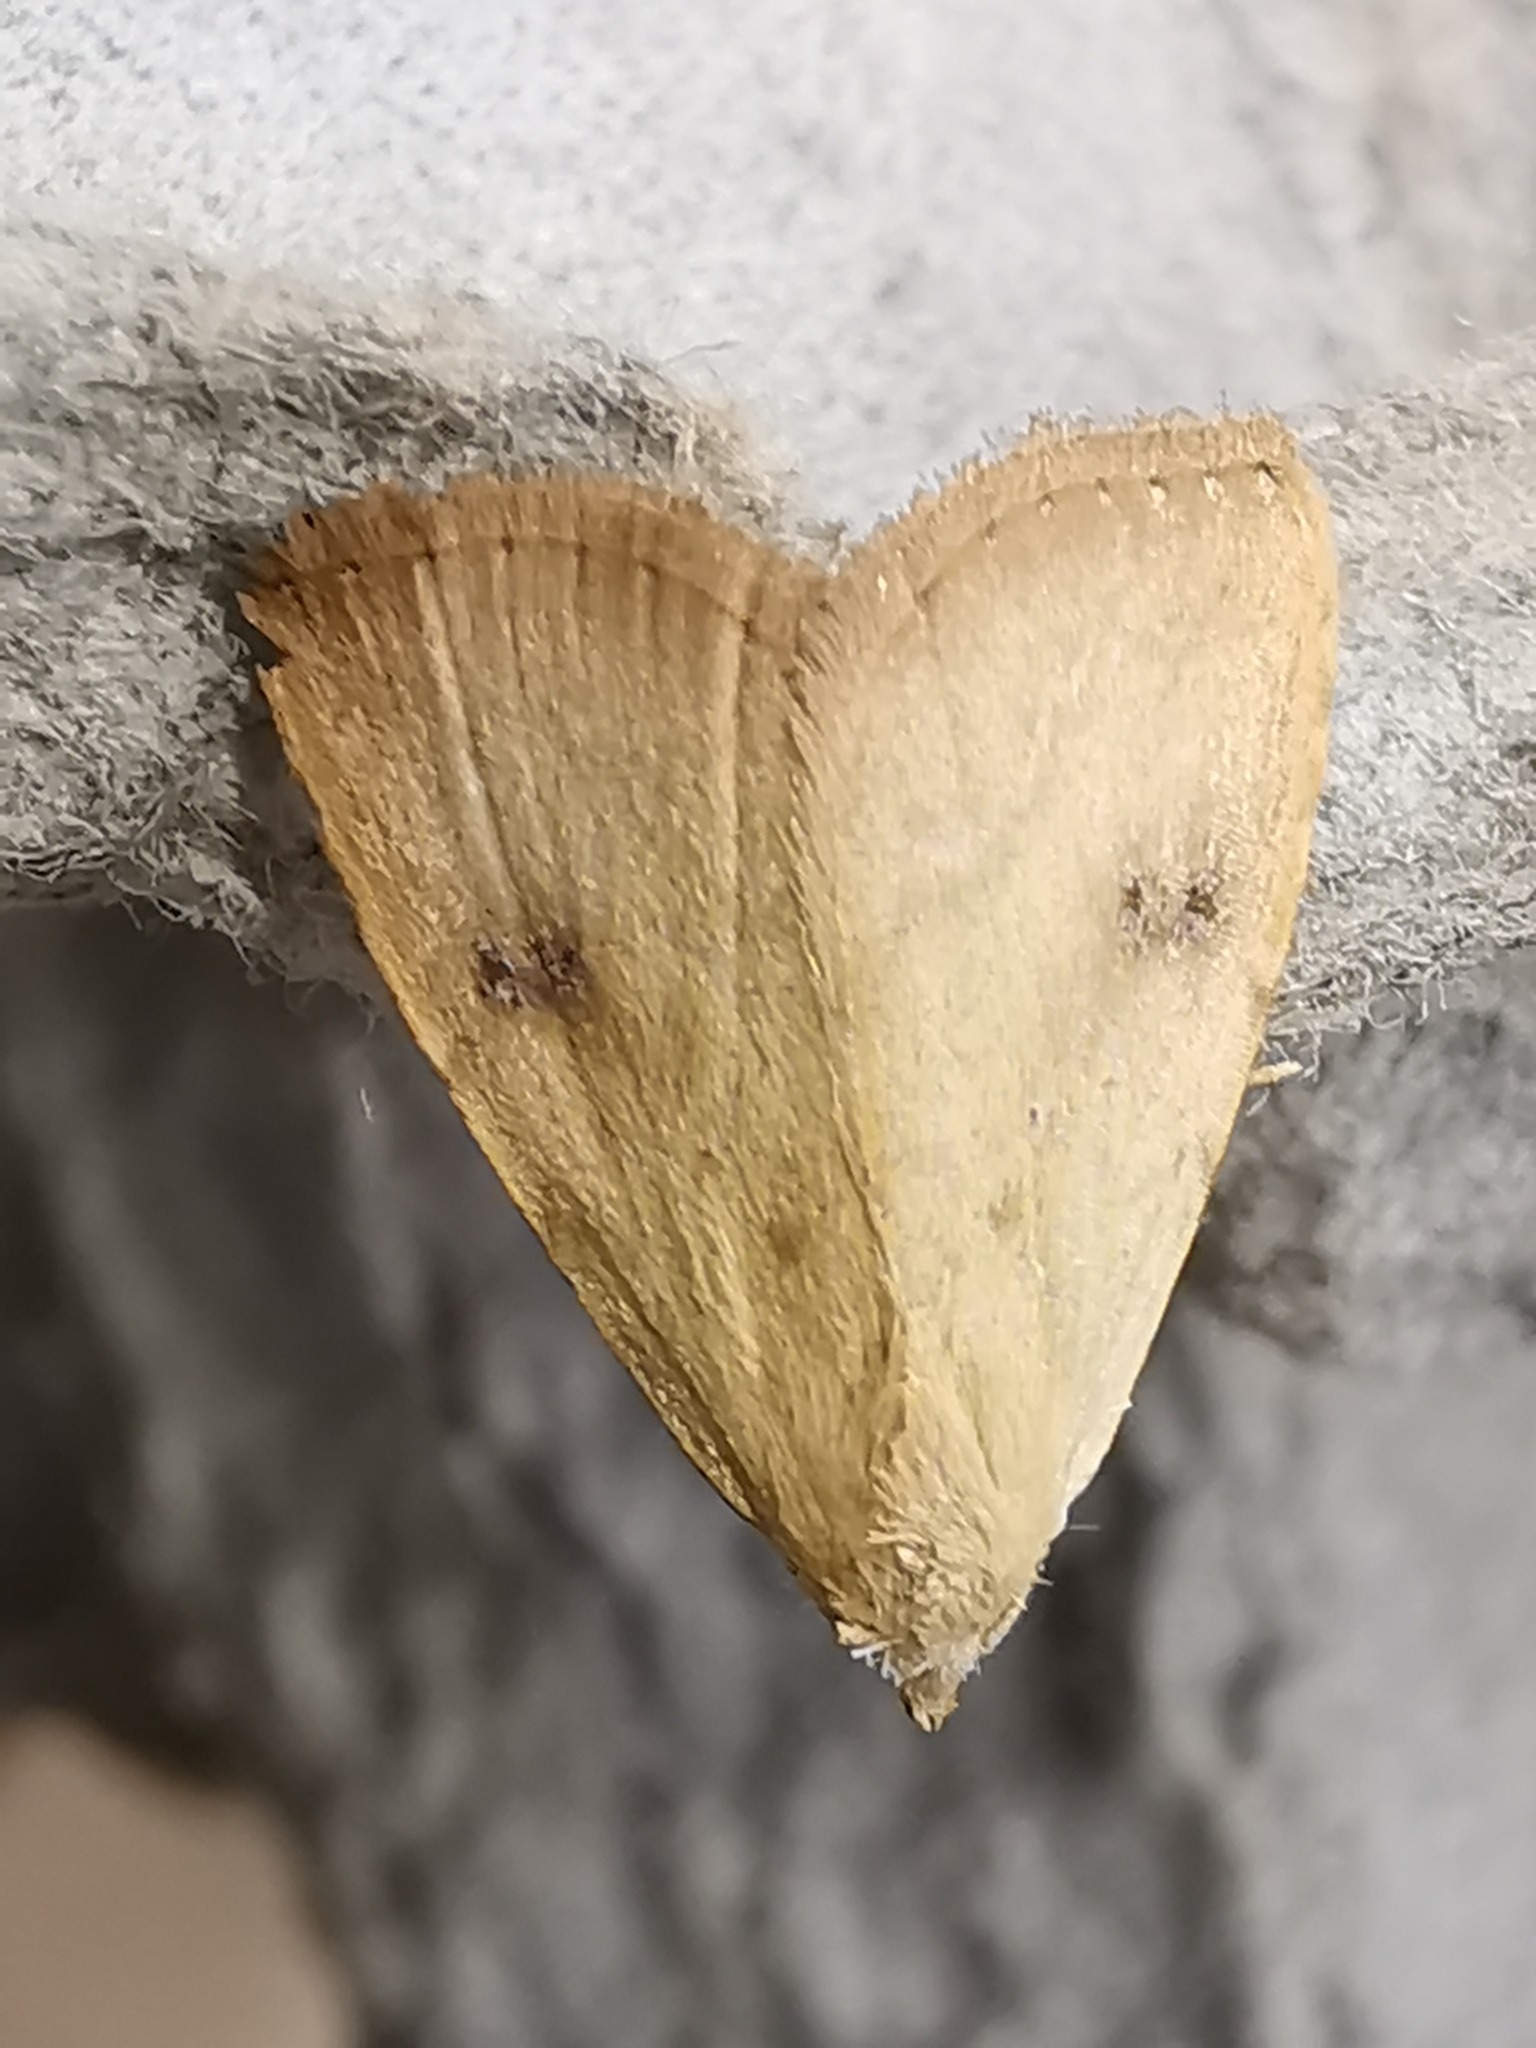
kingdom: Animalia
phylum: Arthropoda
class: Insecta
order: Lepidoptera
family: Erebidae
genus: Rivula
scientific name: Rivula sericealis
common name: Straw dot
